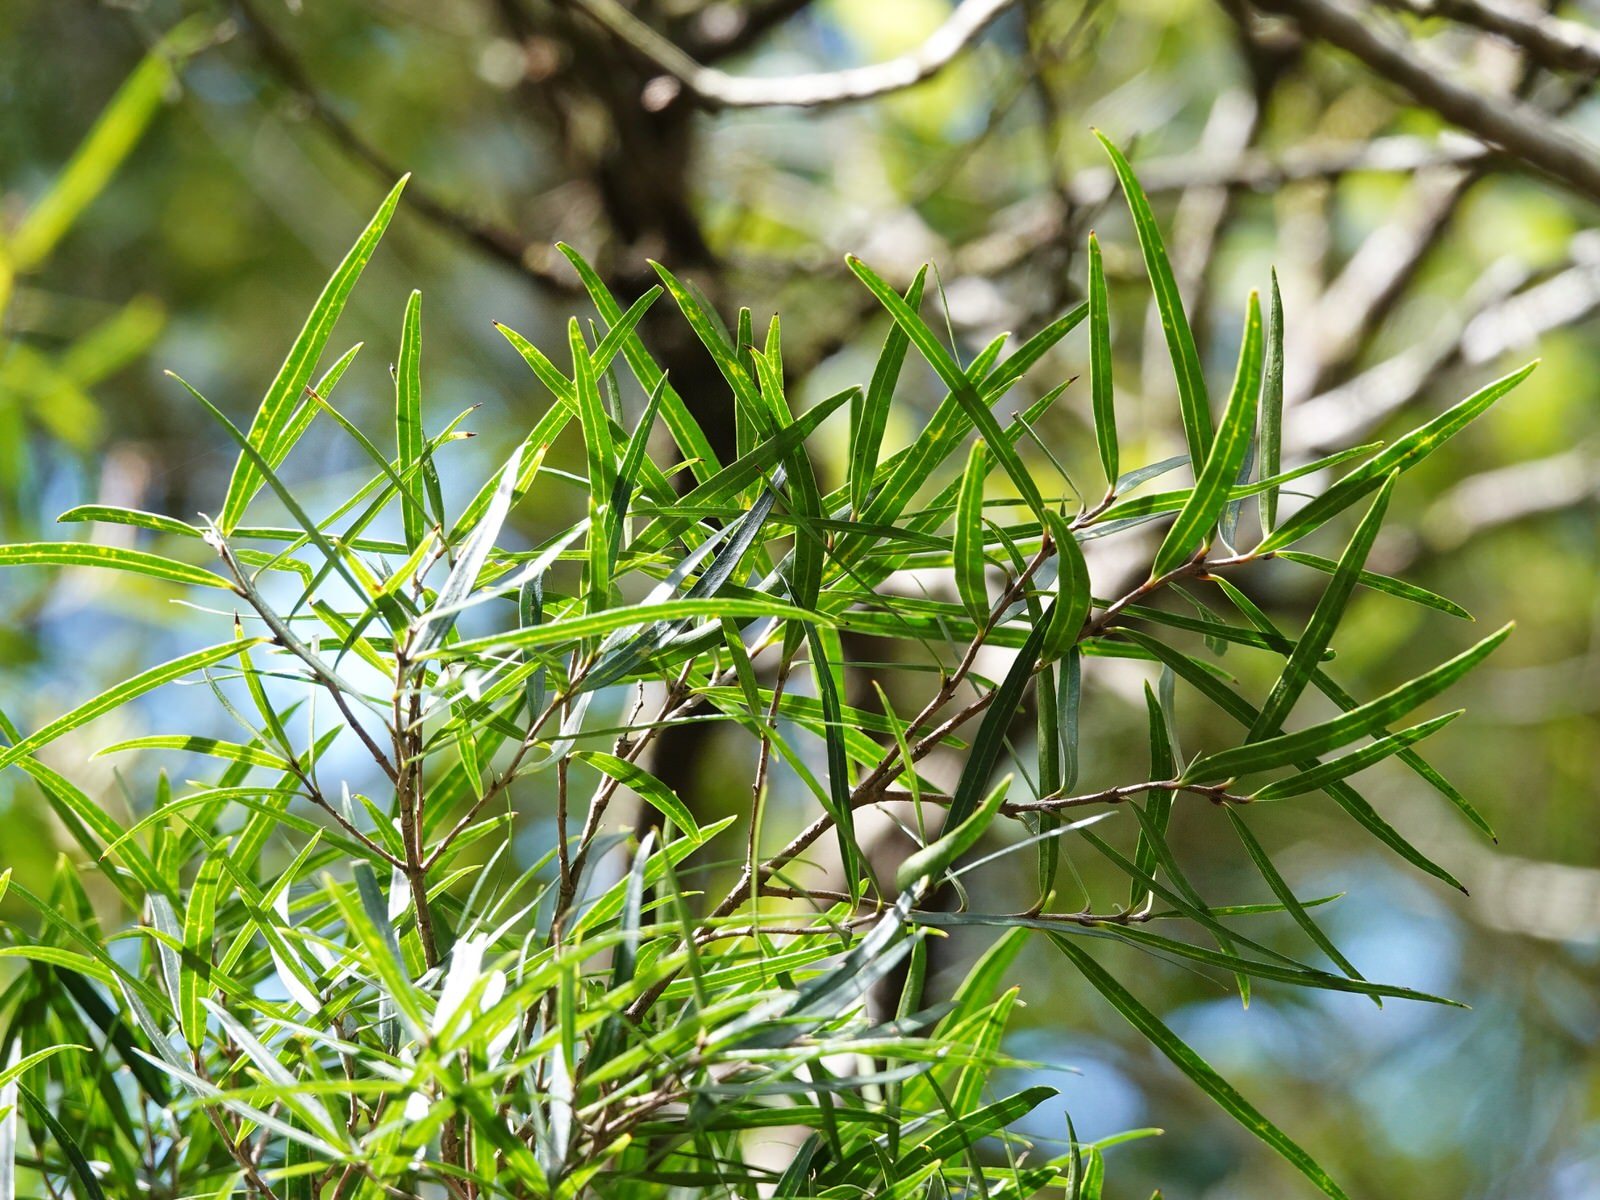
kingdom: Plantae
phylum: Tracheophyta
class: Magnoliopsida
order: Lamiales
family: Oleaceae
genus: Nestegis
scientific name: Nestegis montana
